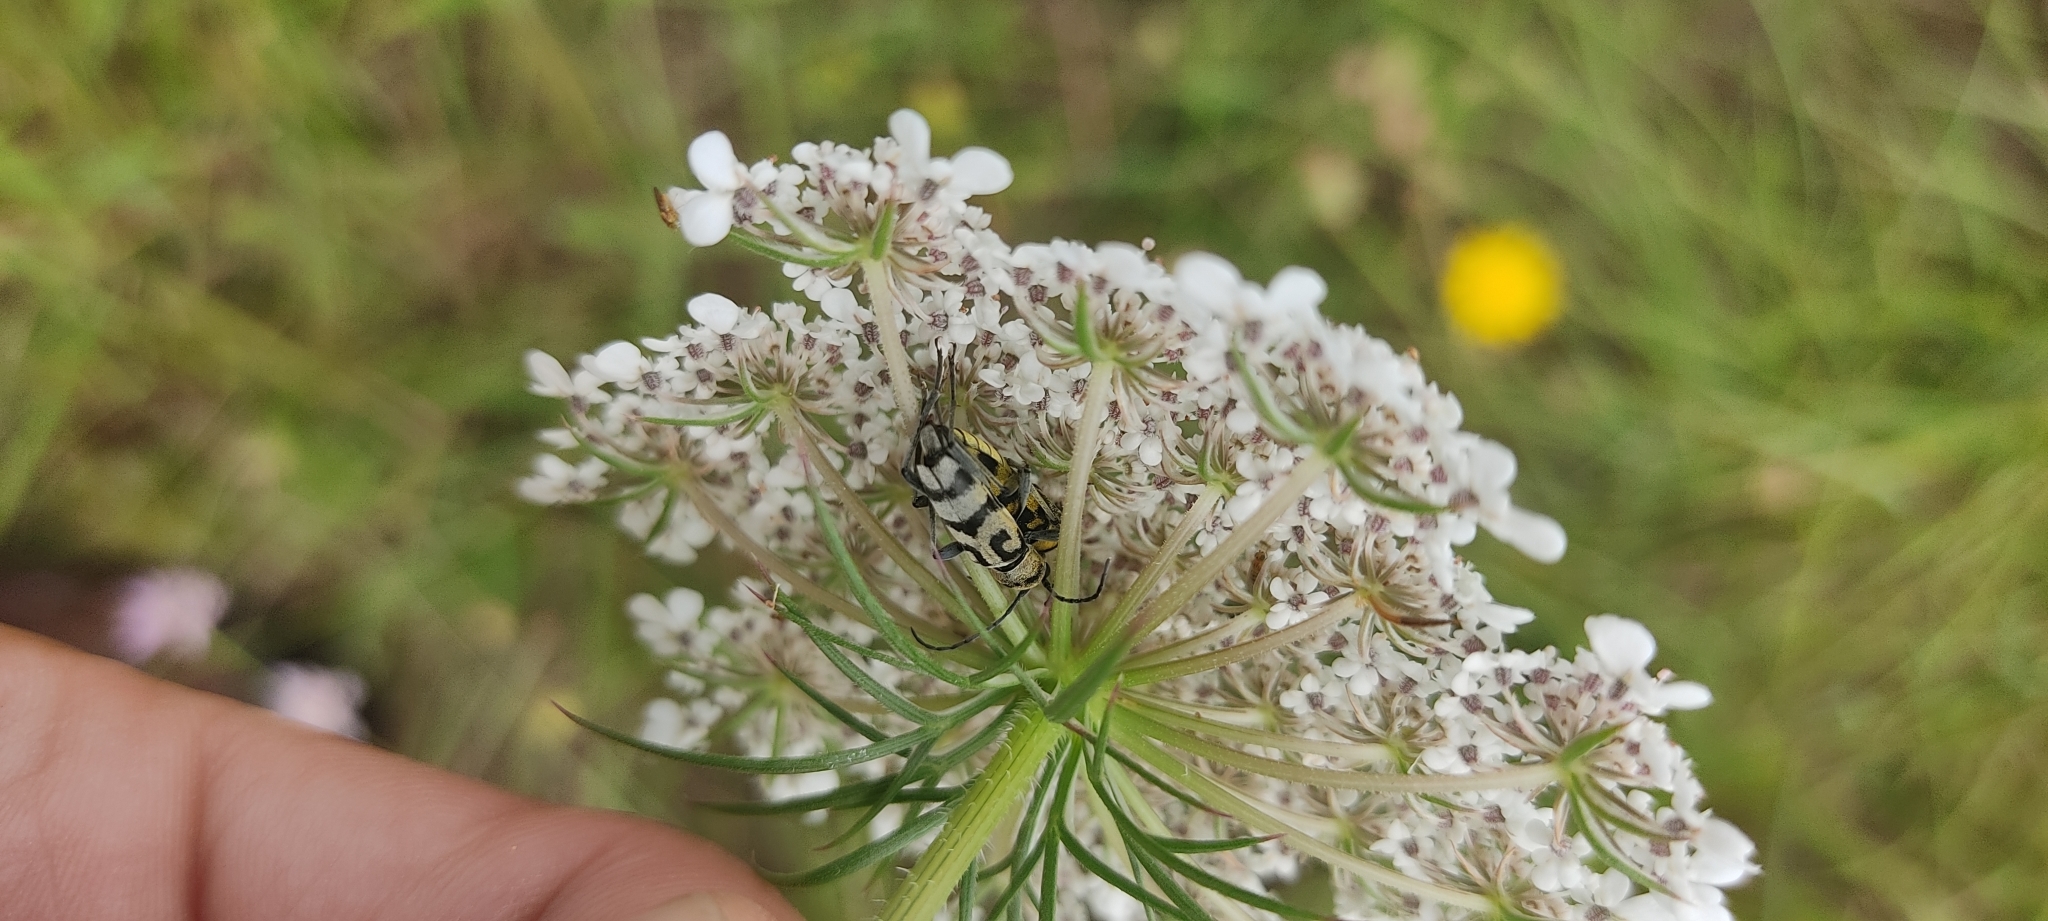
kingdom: Animalia
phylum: Arthropoda
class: Insecta
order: Coleoptera
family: Cerambycidae
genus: Chlorophorus
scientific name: Chlorophorus varius
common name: Grape wood borer
